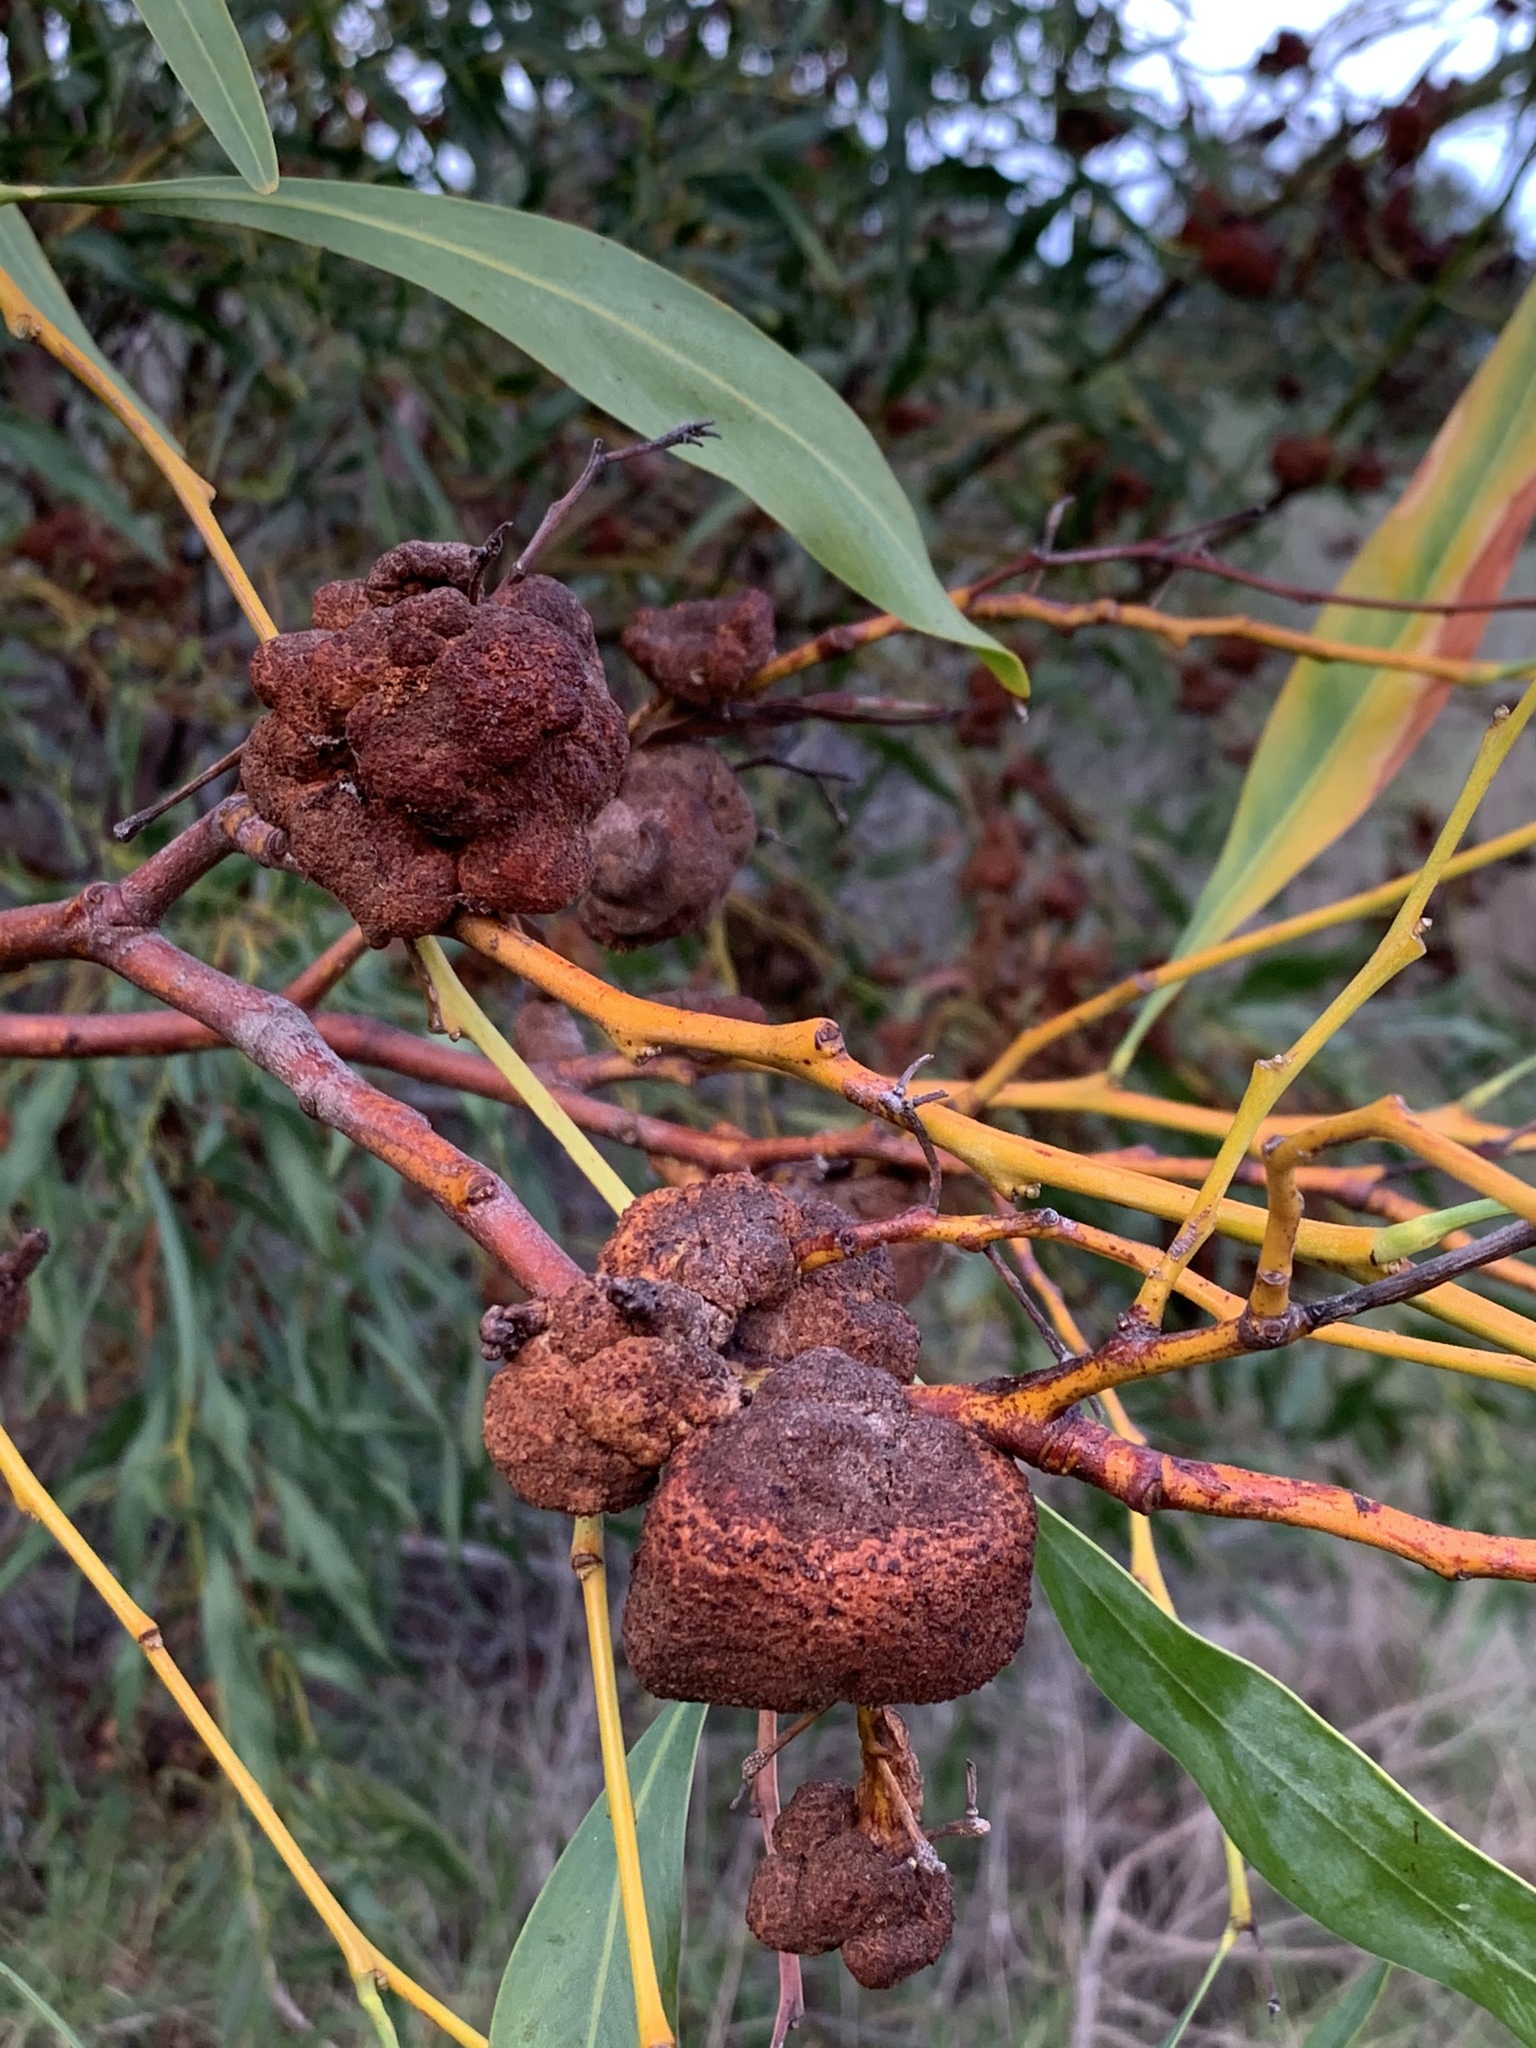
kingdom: Fungi
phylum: Basidiomycota
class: Pucciniomycetes
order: Pucciniales
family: Uromycladiaceae
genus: Uromycladium
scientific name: Uromycladium morrisii
